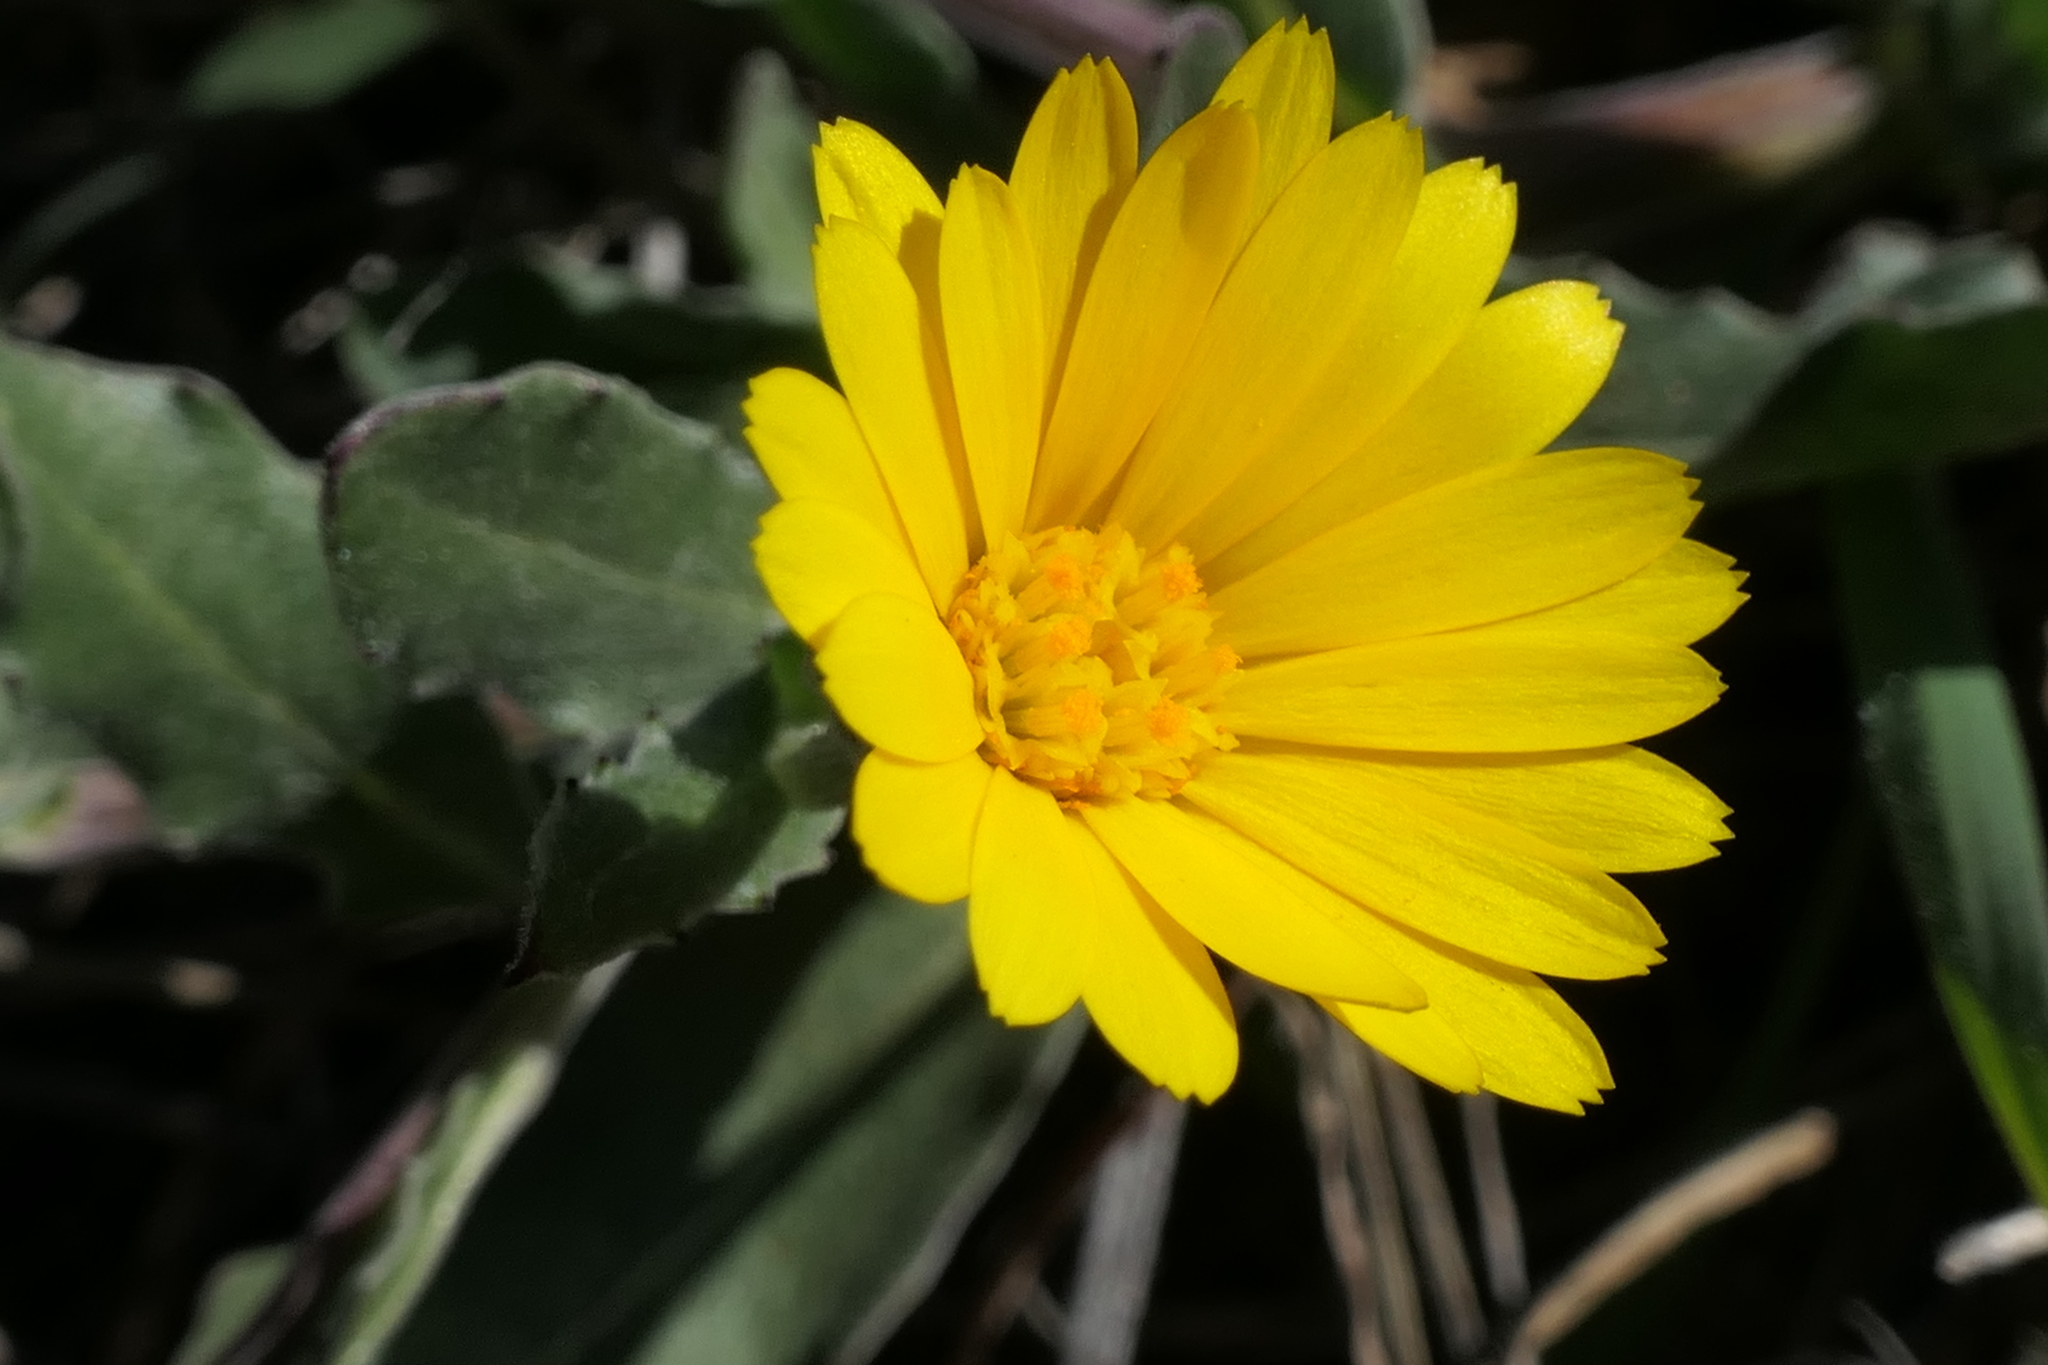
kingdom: Plantae
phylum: Tracheophyta
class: Magnoliopsida
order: Asterales
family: Asteraceae
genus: Calendula
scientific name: Calendula arvensis
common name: Field marigold
